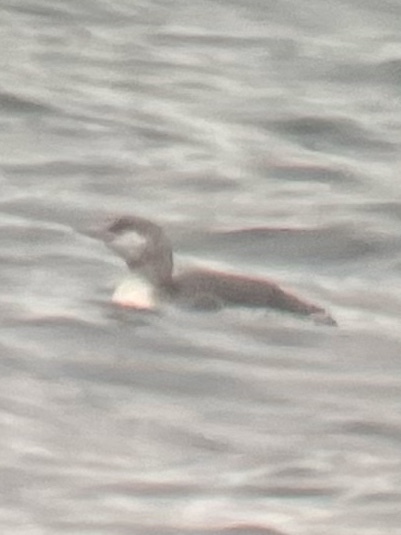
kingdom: Animalia
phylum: Chordata
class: Aves
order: Gaviiformes
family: Gaviidae
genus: Gavia
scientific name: Gavia stellata
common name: Red-throated loon
